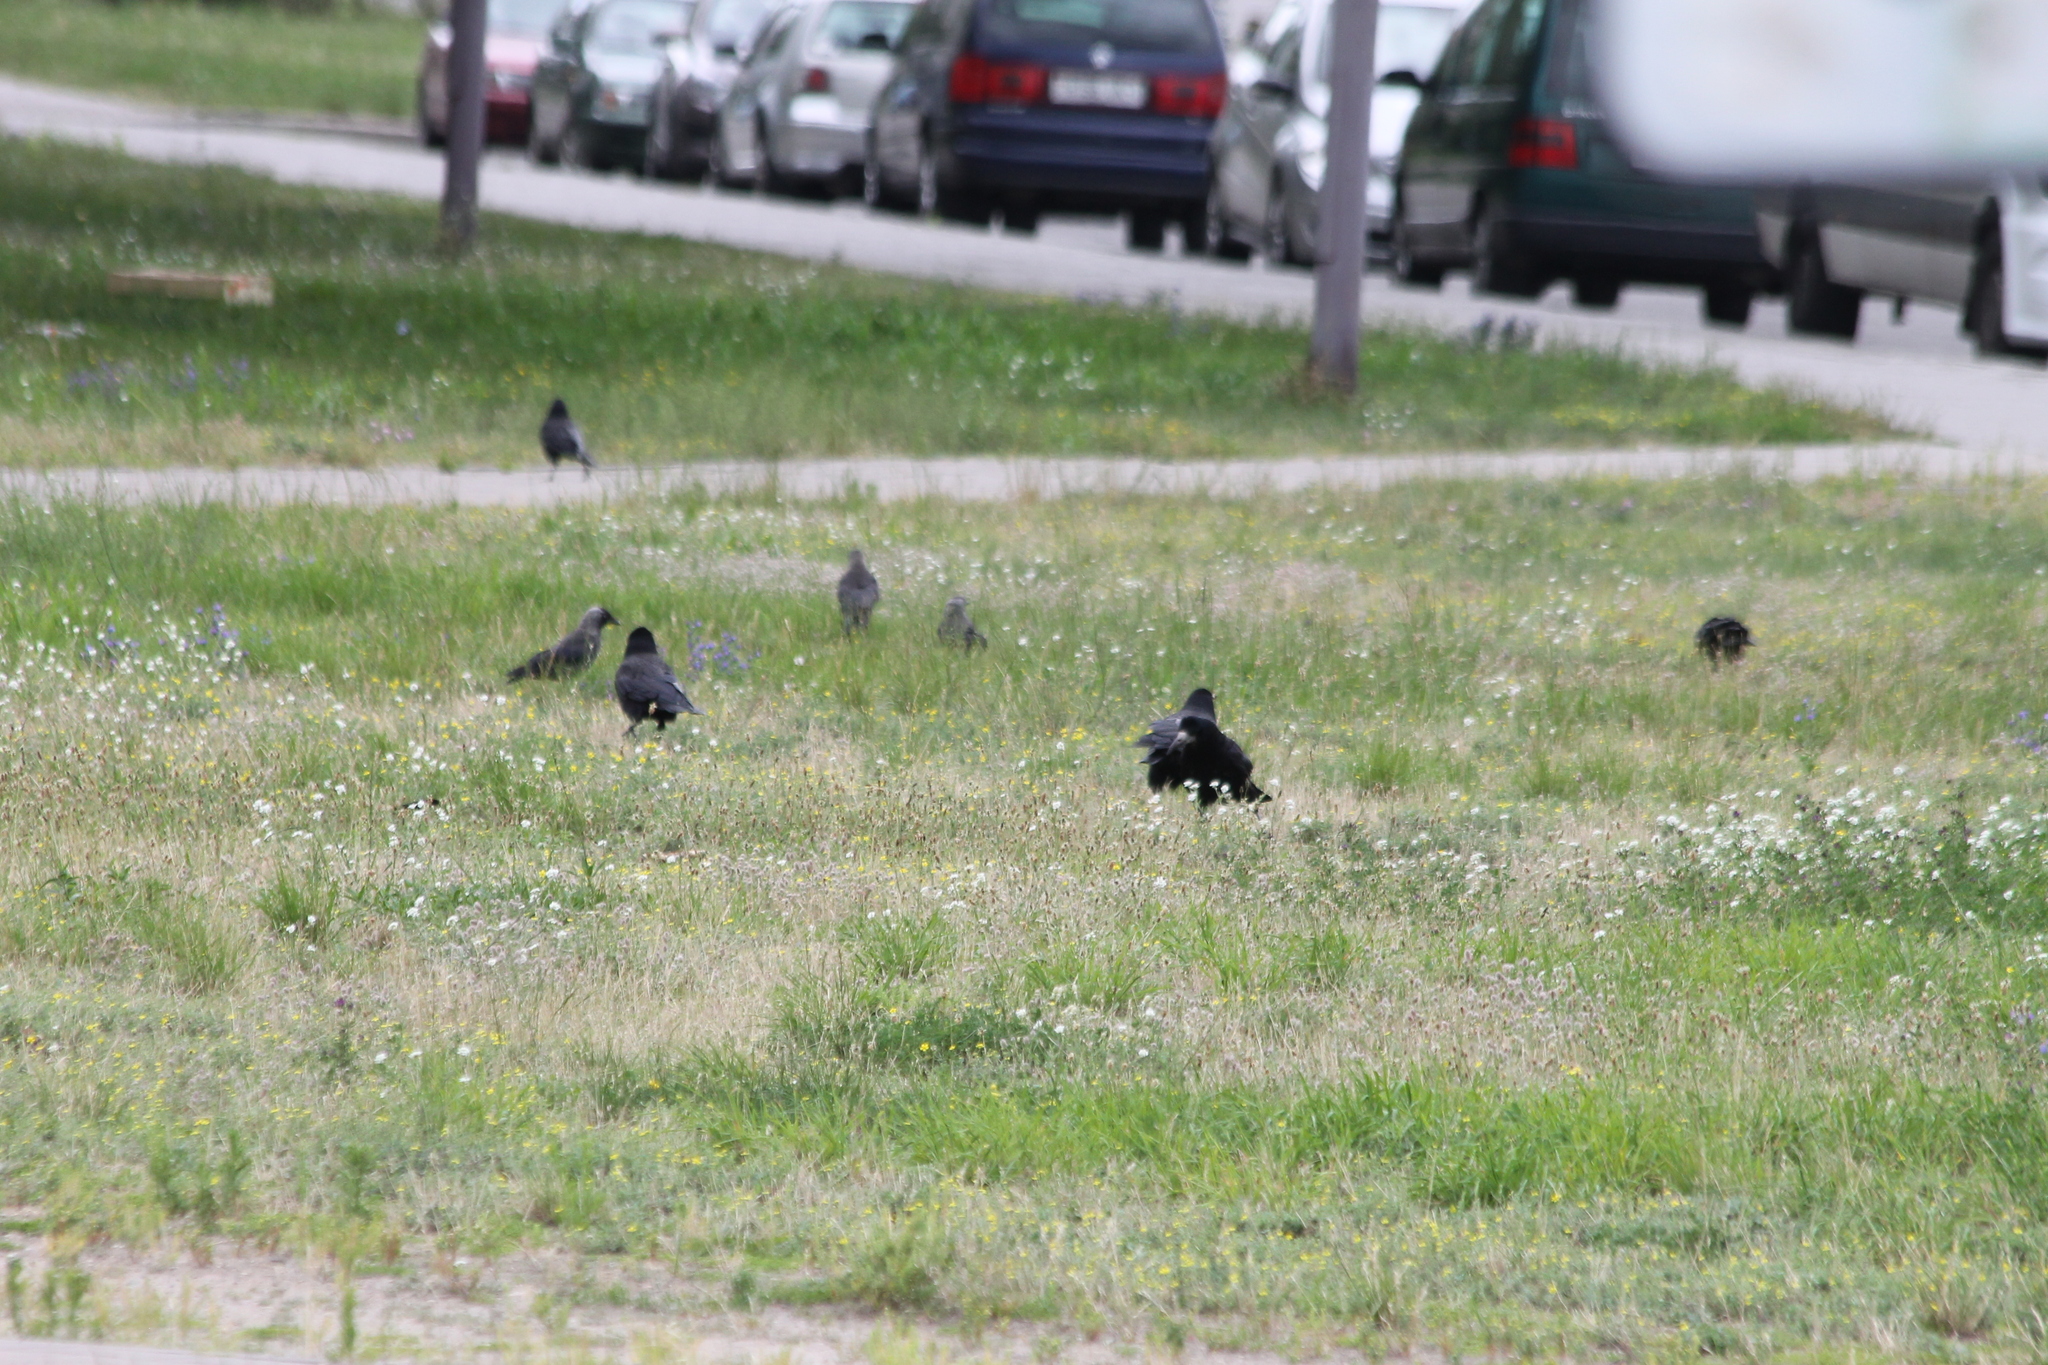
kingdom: Animalia
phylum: Chordata
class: Aves
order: Passeriformes
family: Corvidae
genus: Corvus
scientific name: Corvus frugilegus
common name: Rook
